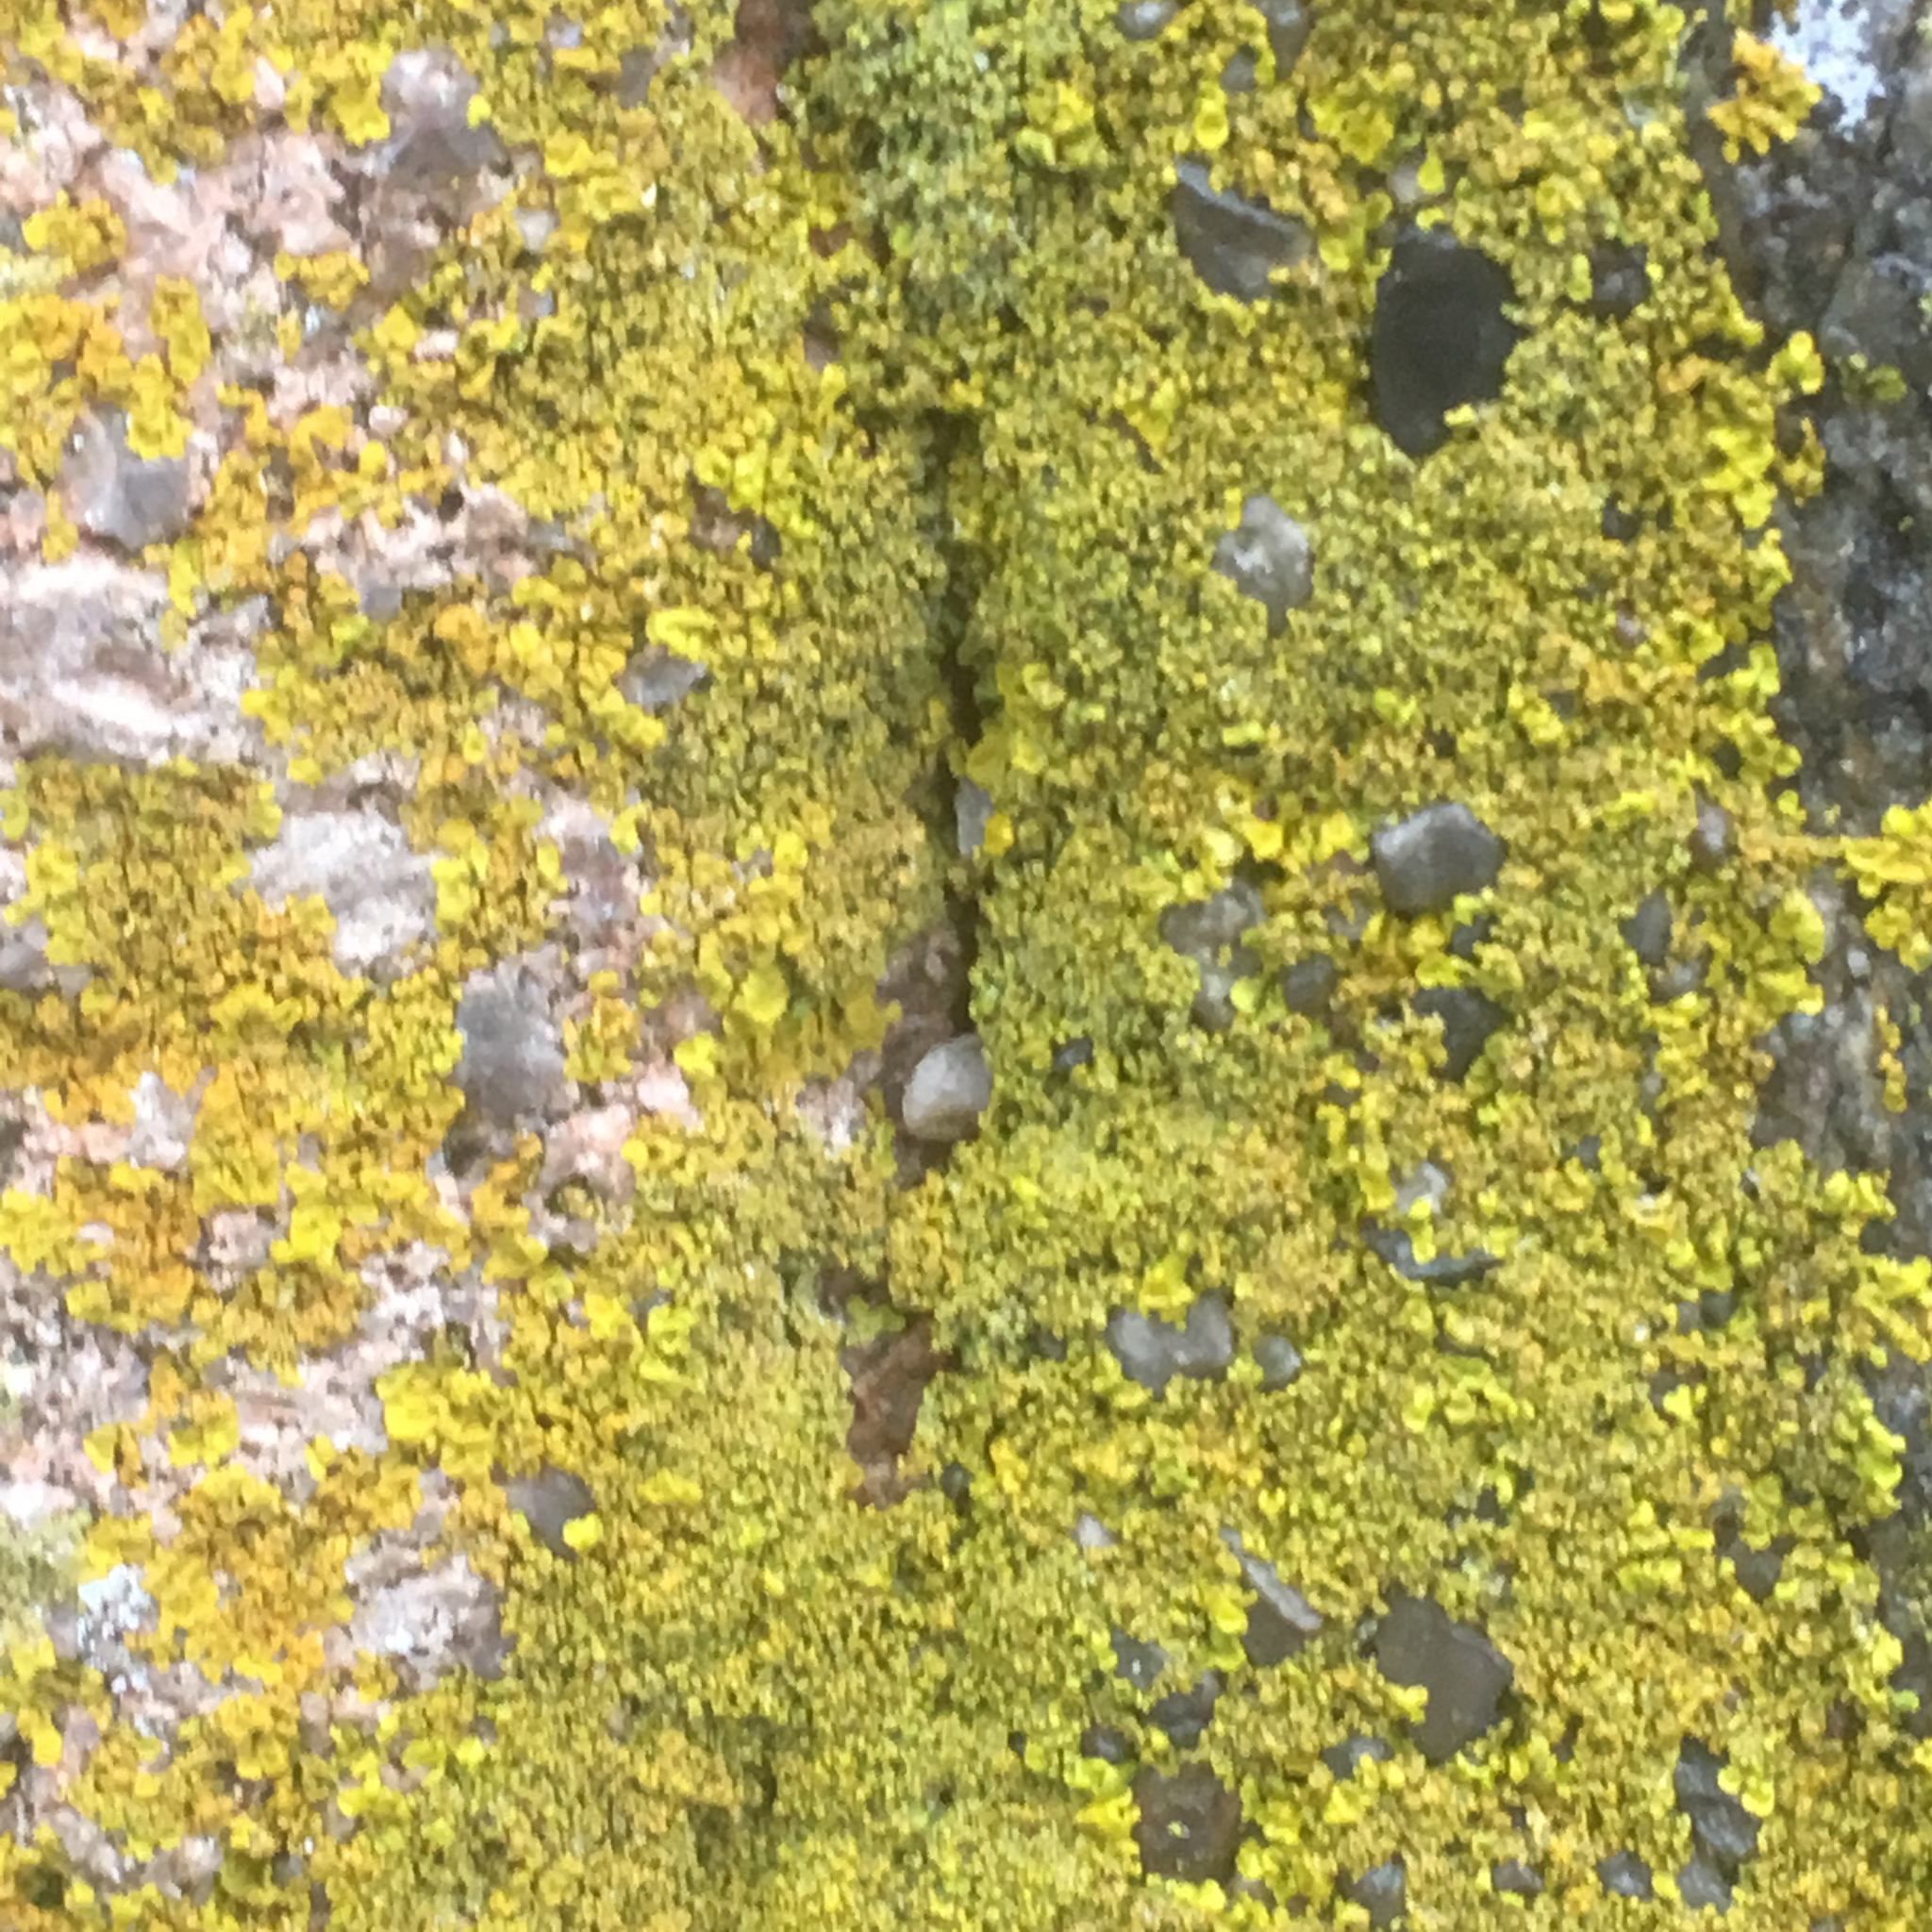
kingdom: Fungi
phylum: Ascomycota
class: Lecanoromycetes
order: Teloschistales
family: Teloschistaceae
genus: Xanthoria
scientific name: Xanthoria parietina
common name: Common orange lichen
